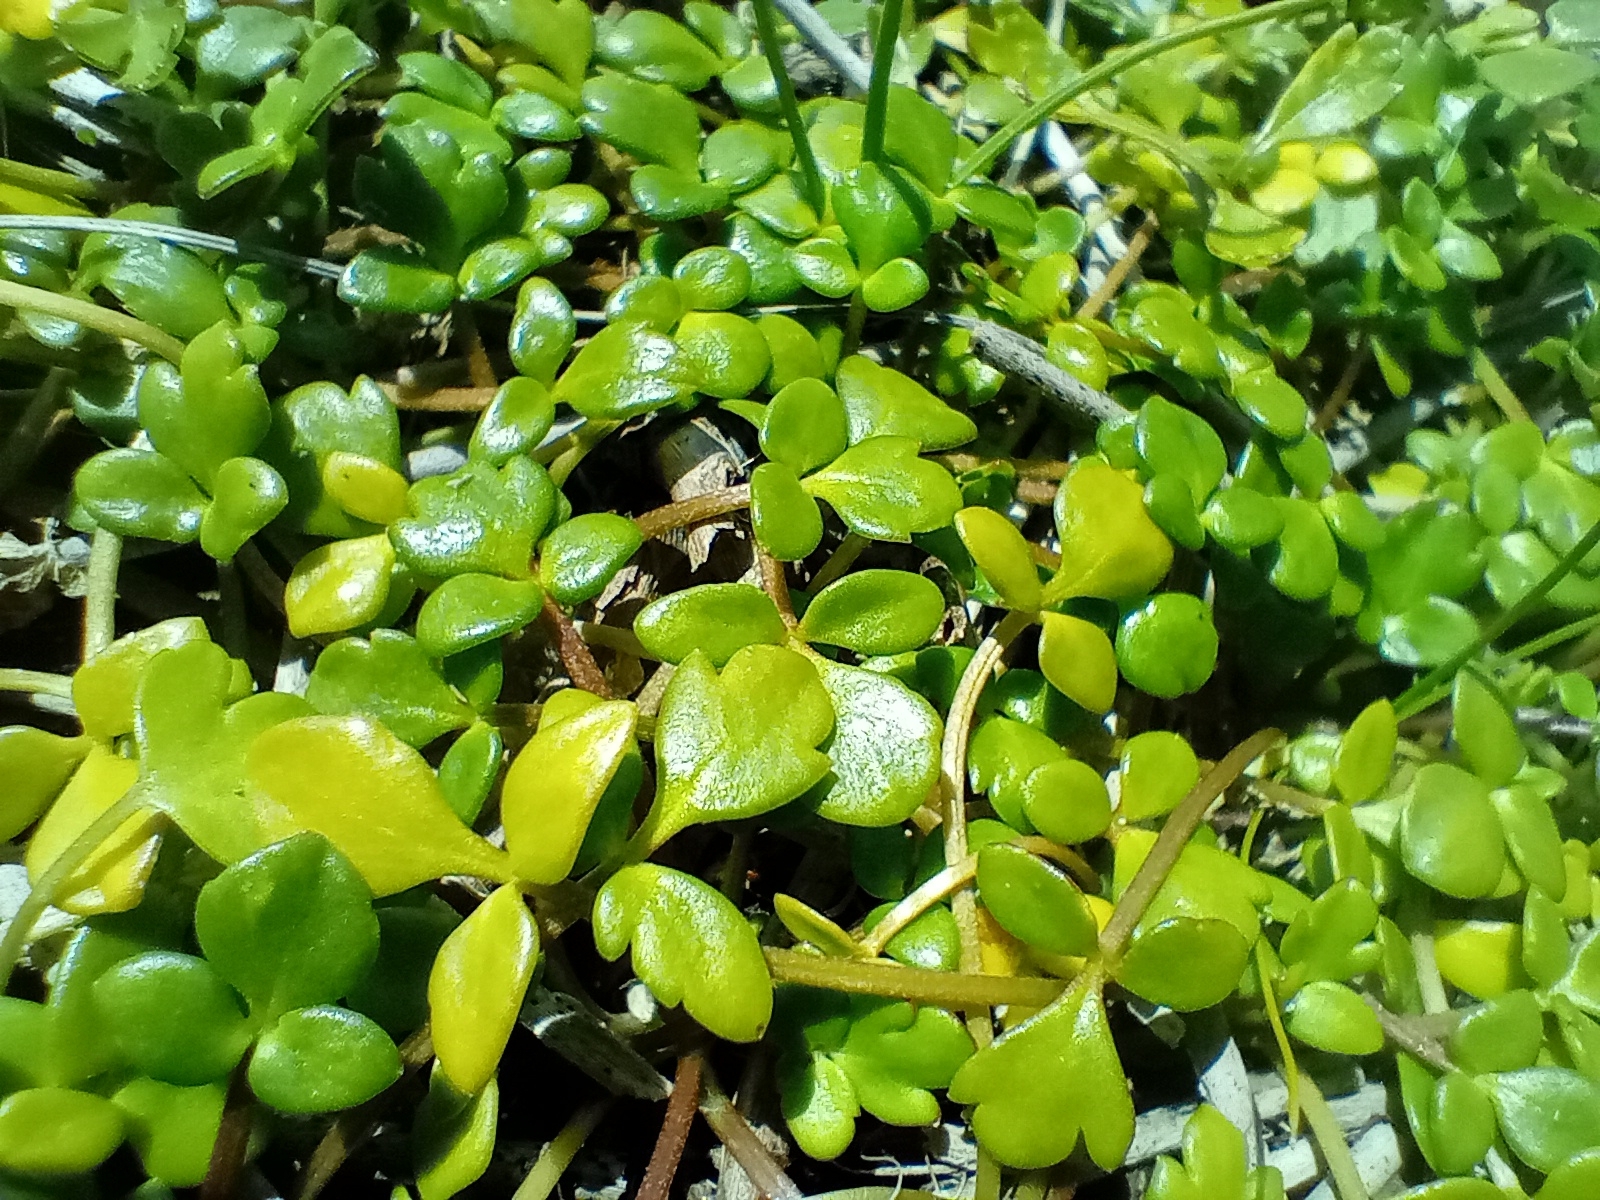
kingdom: Plantae
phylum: Tracheophyta
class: Magnoliopsida
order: Ranunculales
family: Ranunculaceae
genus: Ranunculus
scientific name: Ranunculus acaulis
